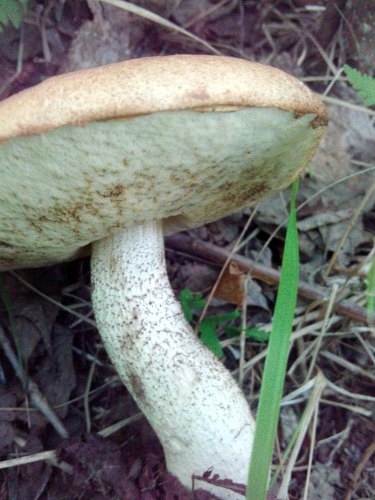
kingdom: Fungi
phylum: Basidiomycota
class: Agaricomycetes
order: Boletales
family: Boletaceae
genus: Leccinum
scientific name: Leccinum
